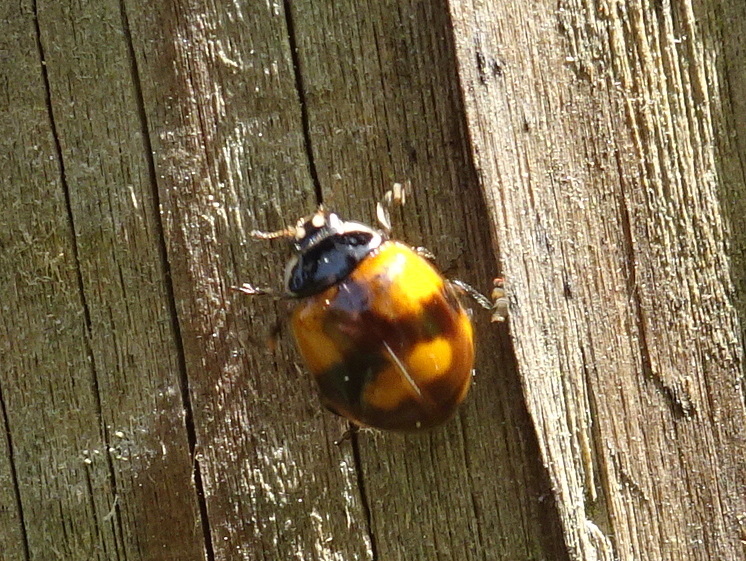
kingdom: Animalia
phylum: Arthropoda
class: Insecta
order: Coleoptera
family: Coccinellidae
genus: Adalia
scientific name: Adalia bipunctata
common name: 2-spot ladybird
